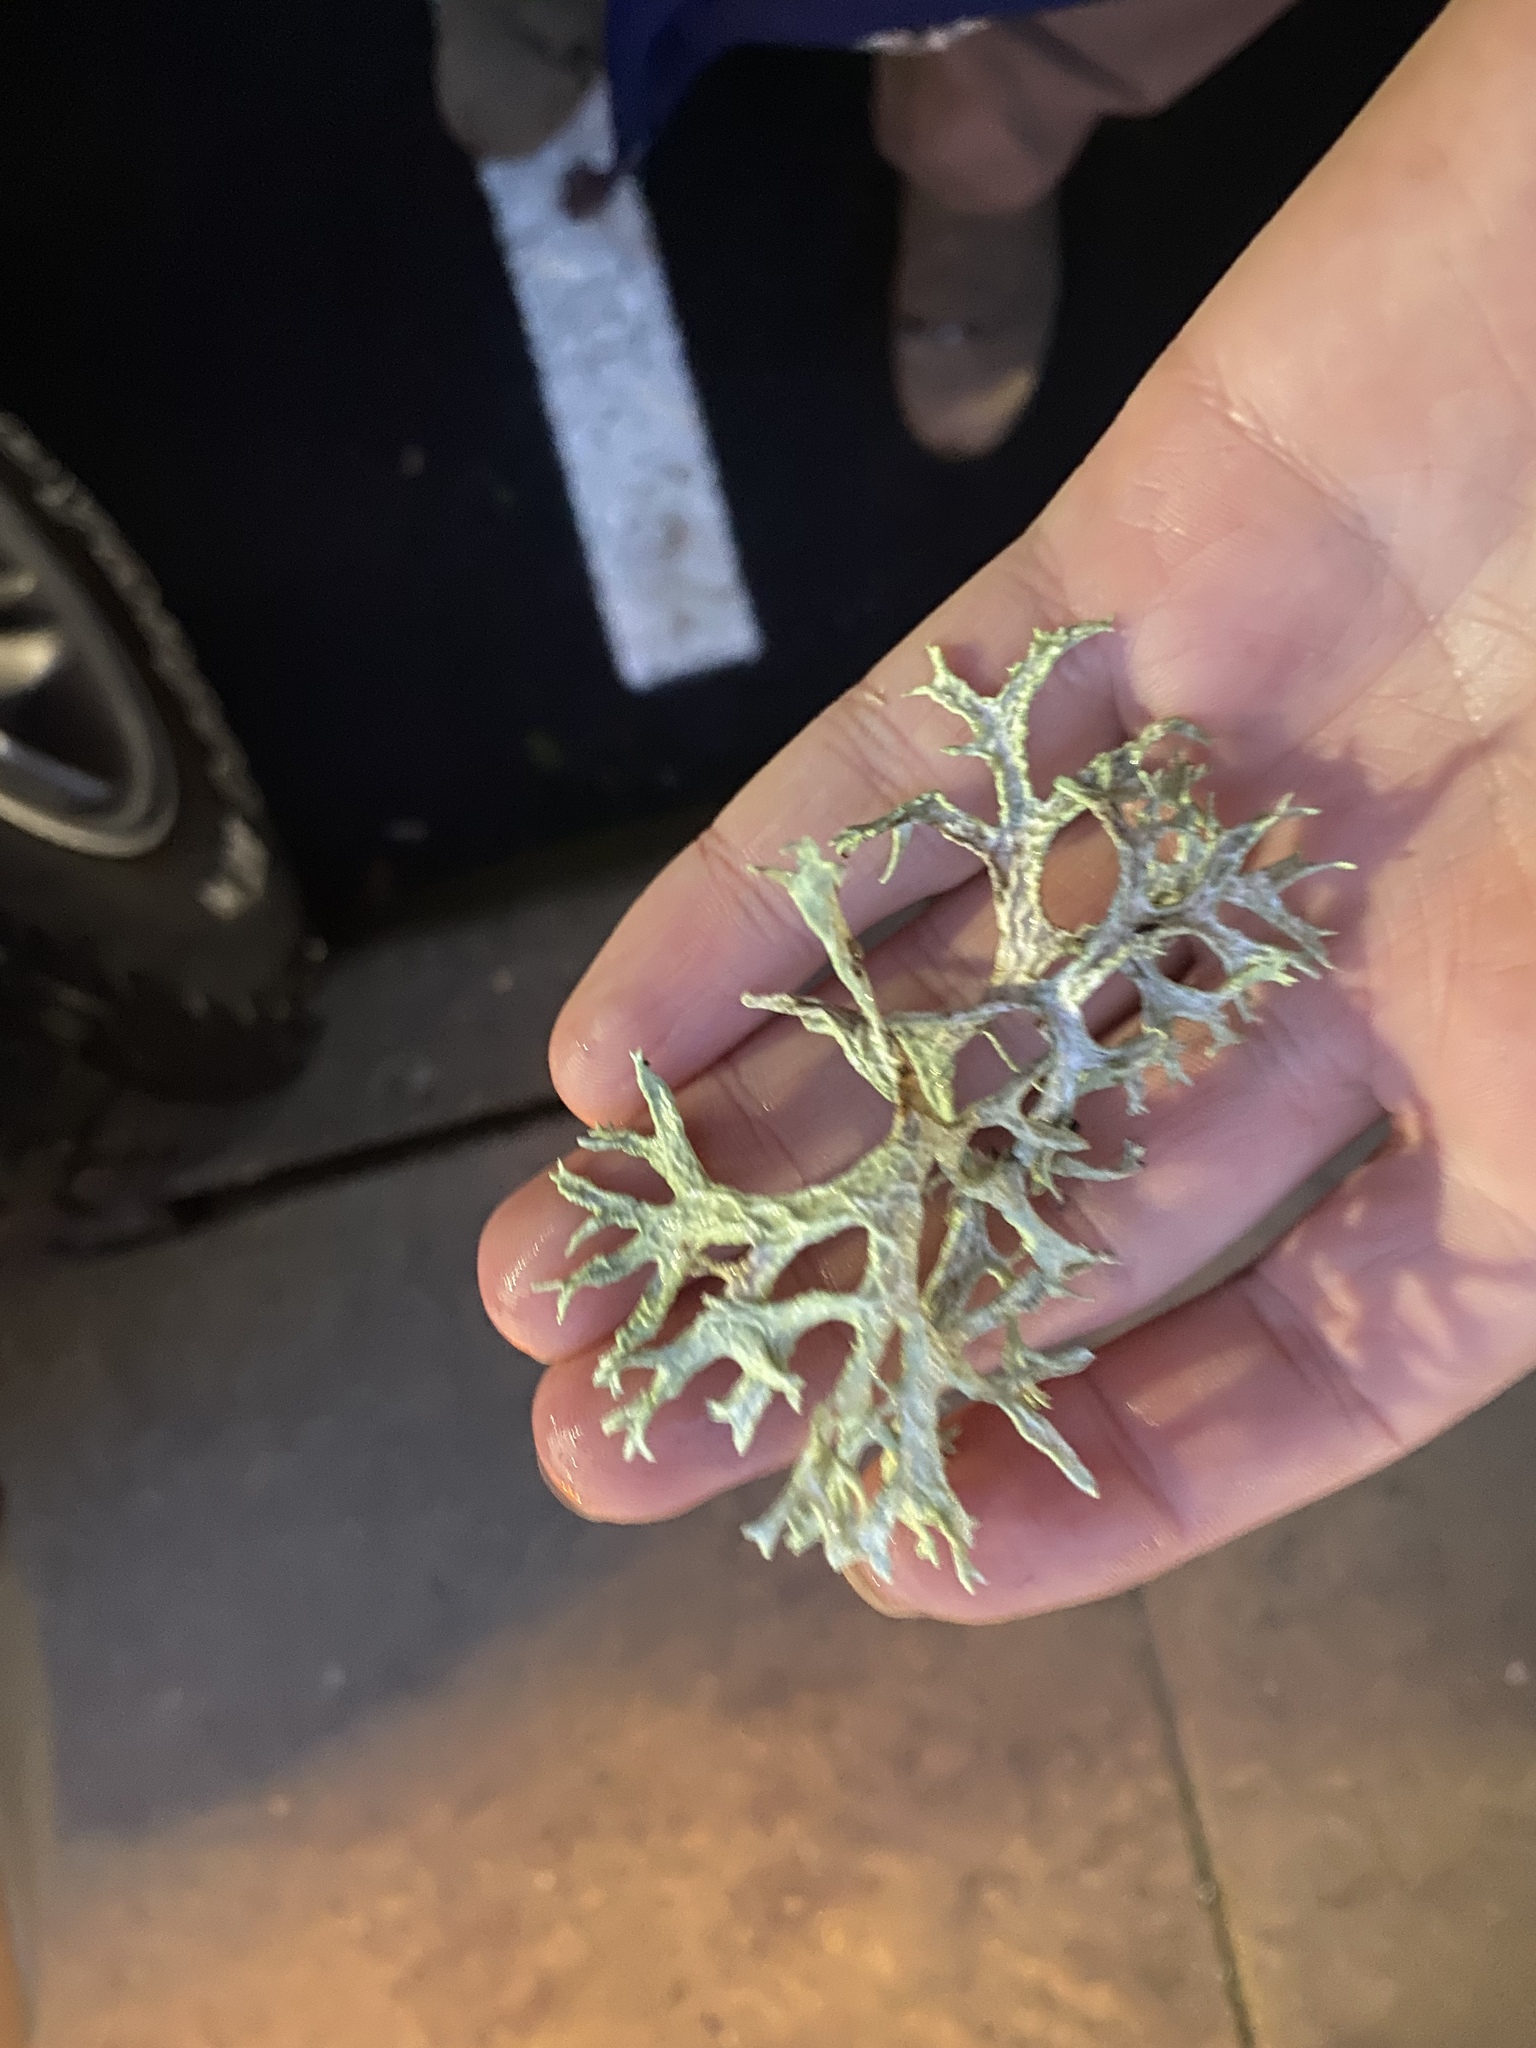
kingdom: Fungi
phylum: Ascomycota
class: Lecanoromycetes
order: Lecanorales
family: Parmeliaceae
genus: Evernia
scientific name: Evernia prunastri
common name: Oak moss
